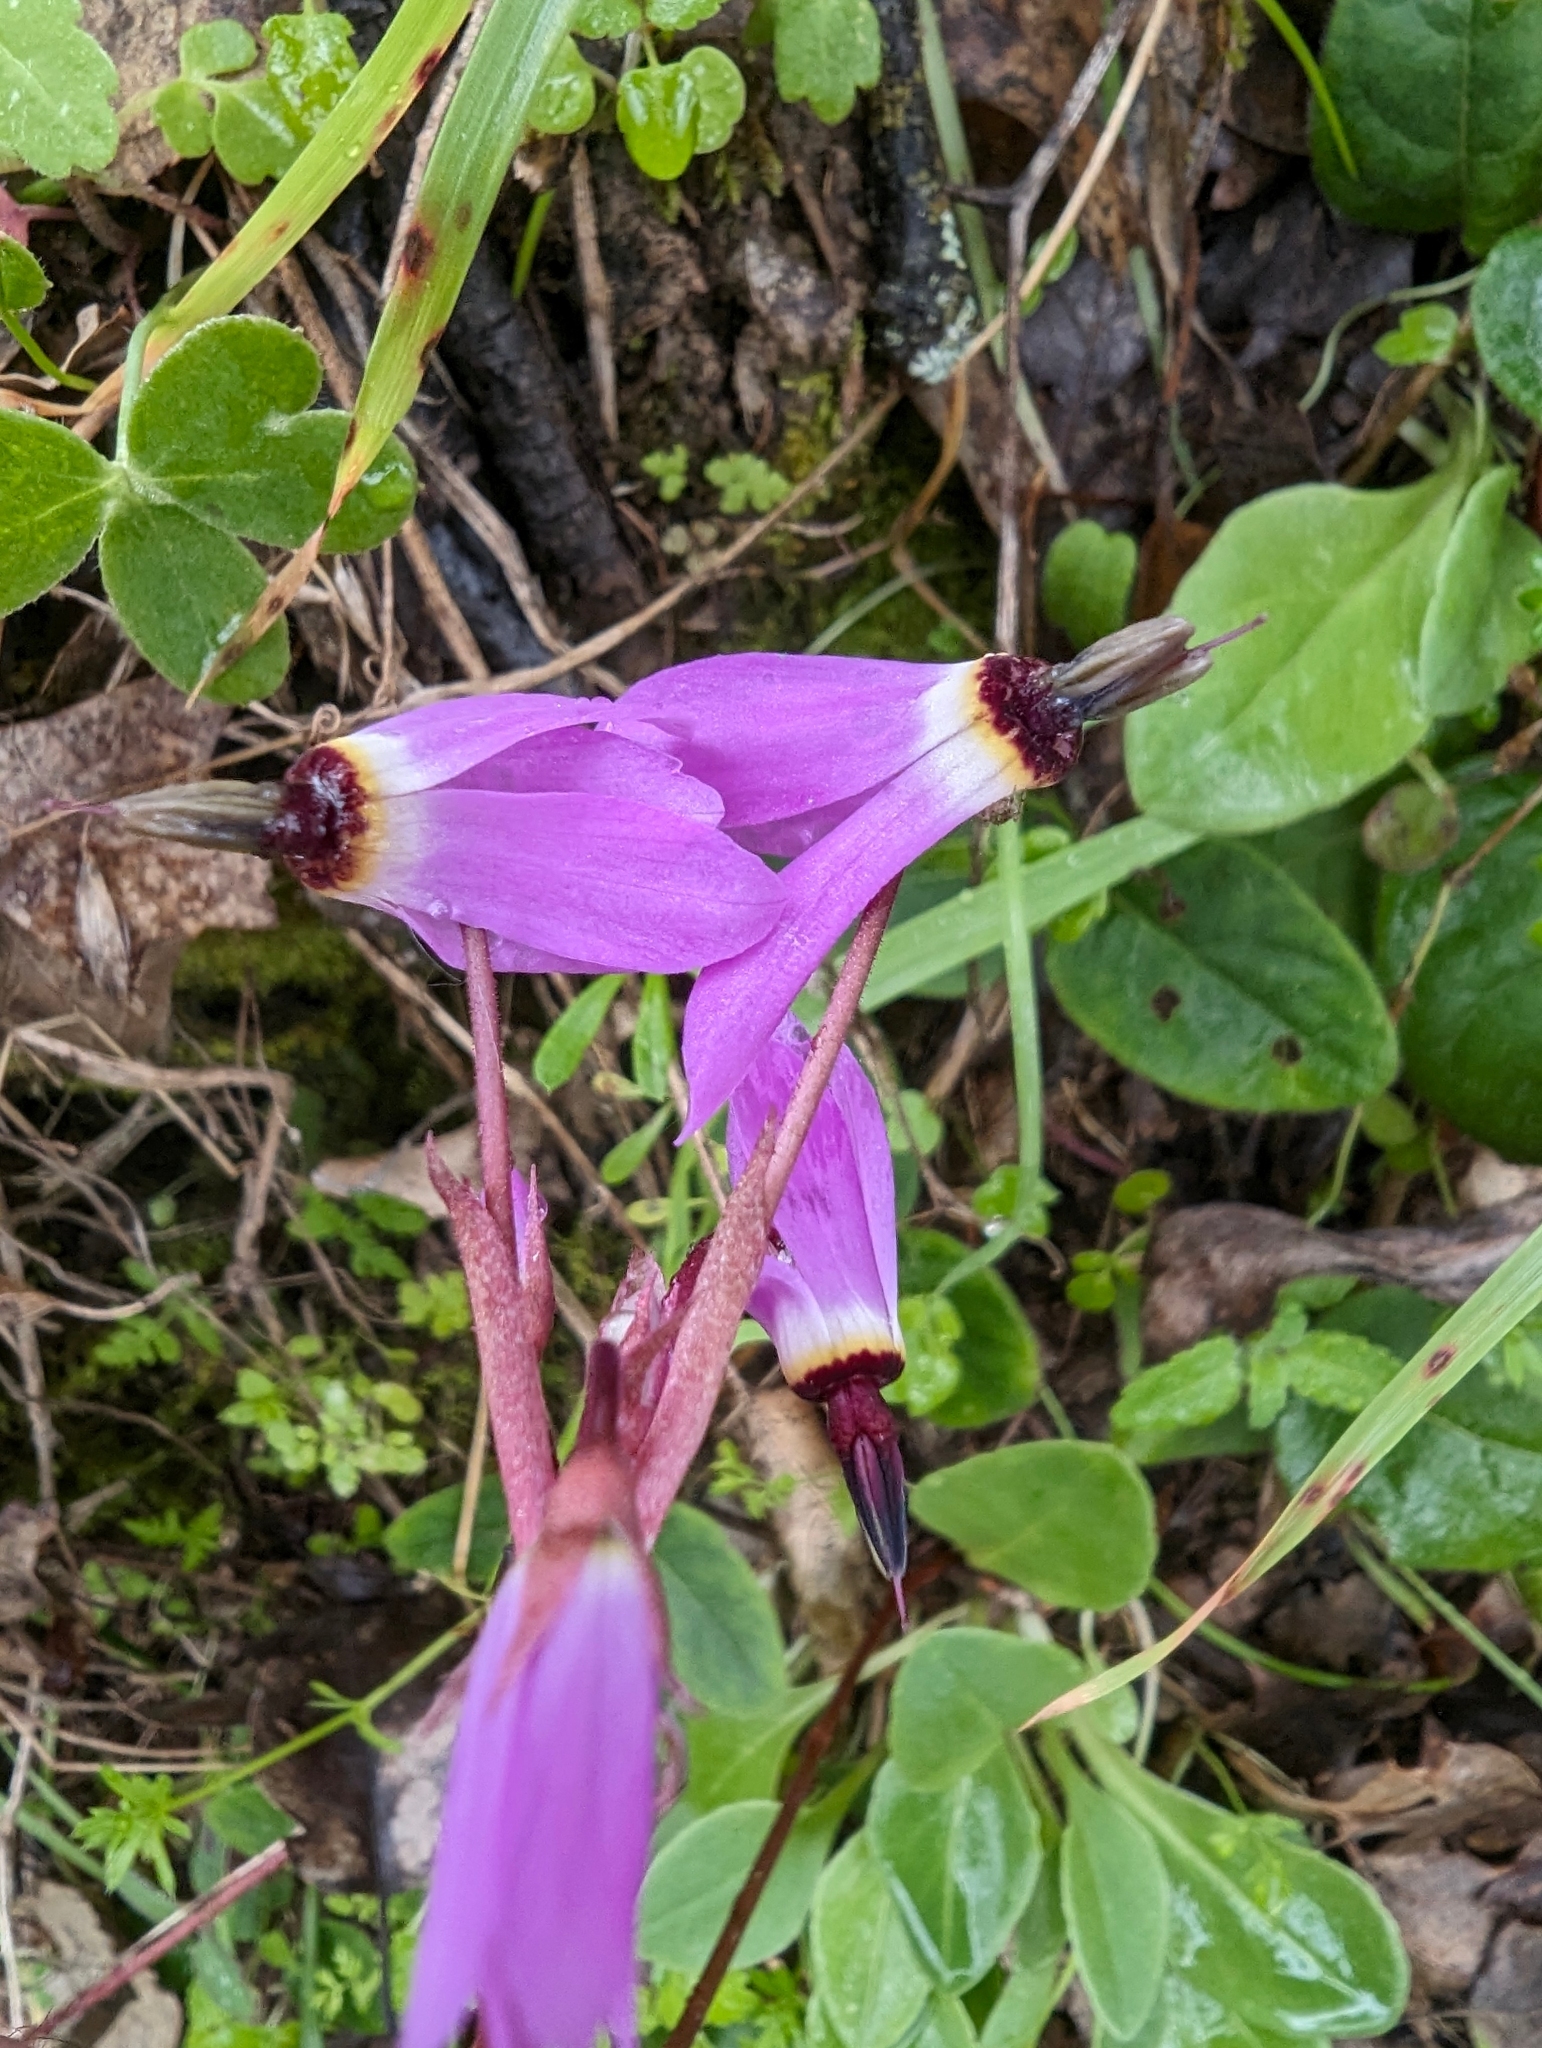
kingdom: Plantae
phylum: Tracheophyta
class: Magnoliopsida
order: Ericales
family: Primulaceae
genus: Dodecatheon
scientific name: Dodecatheon hendersonii
